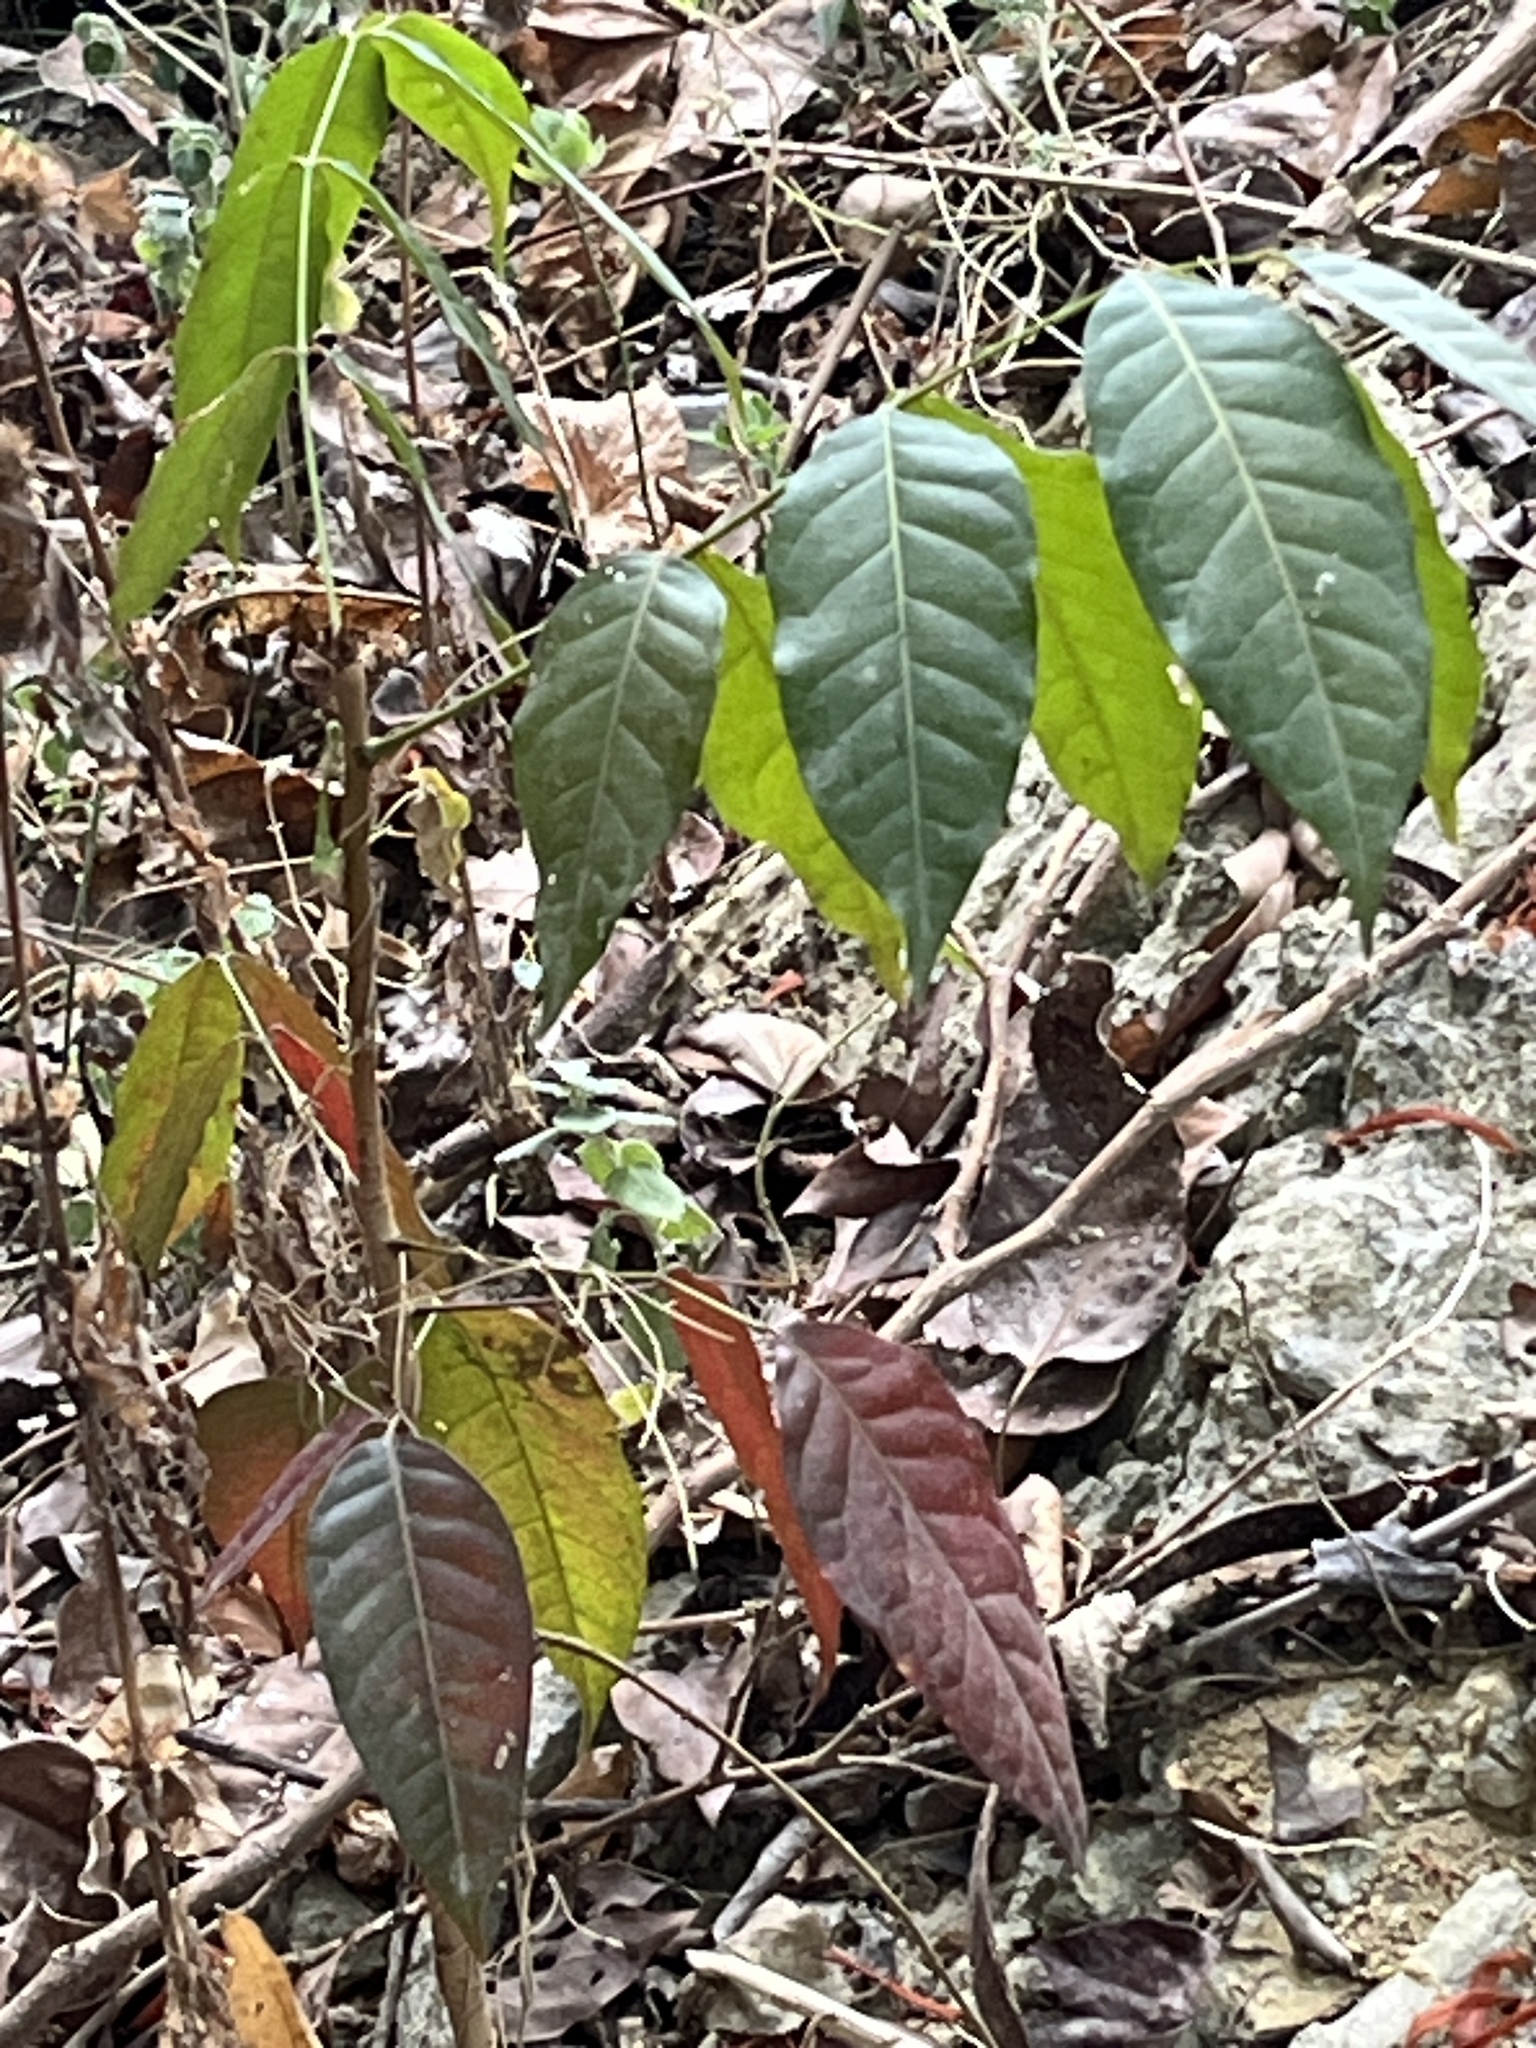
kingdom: Plantae
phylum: Tracheophyta
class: Magnoliopsida
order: Sapindales
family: Meliaceae
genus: Swietenia
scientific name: Swietenia macrophylla
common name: Honduras mahogany
